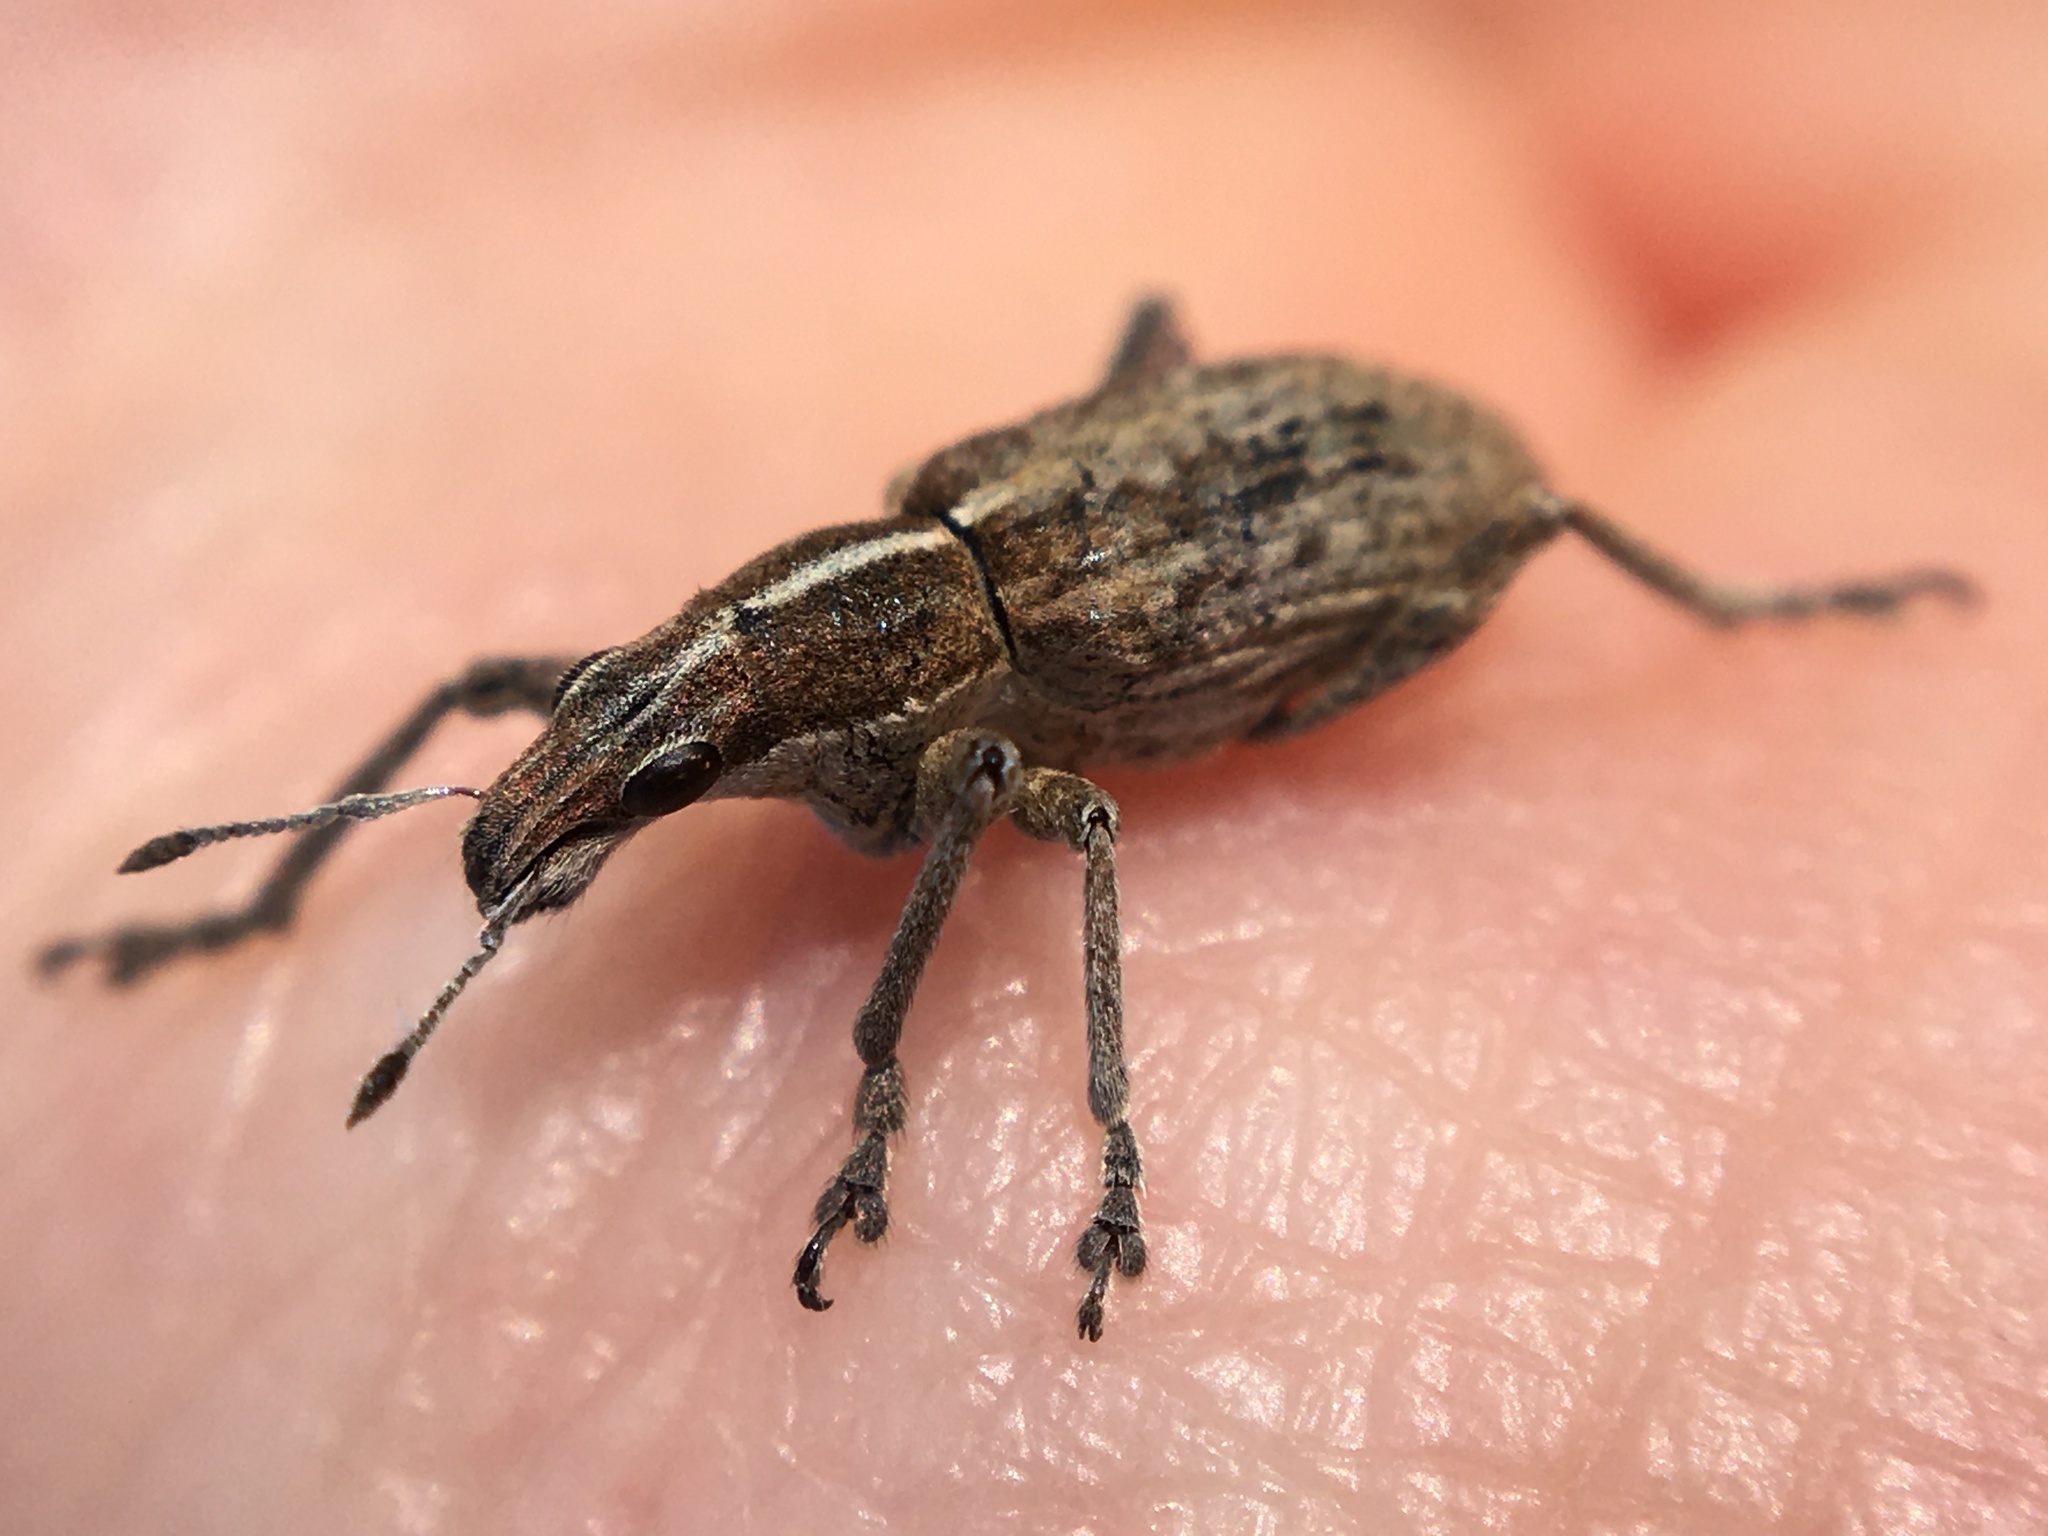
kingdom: Animalia
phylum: Arthropoda
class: Insecta
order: Coleoptera
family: Curculionidae
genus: Charagmus
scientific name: Charagmus gressorius
